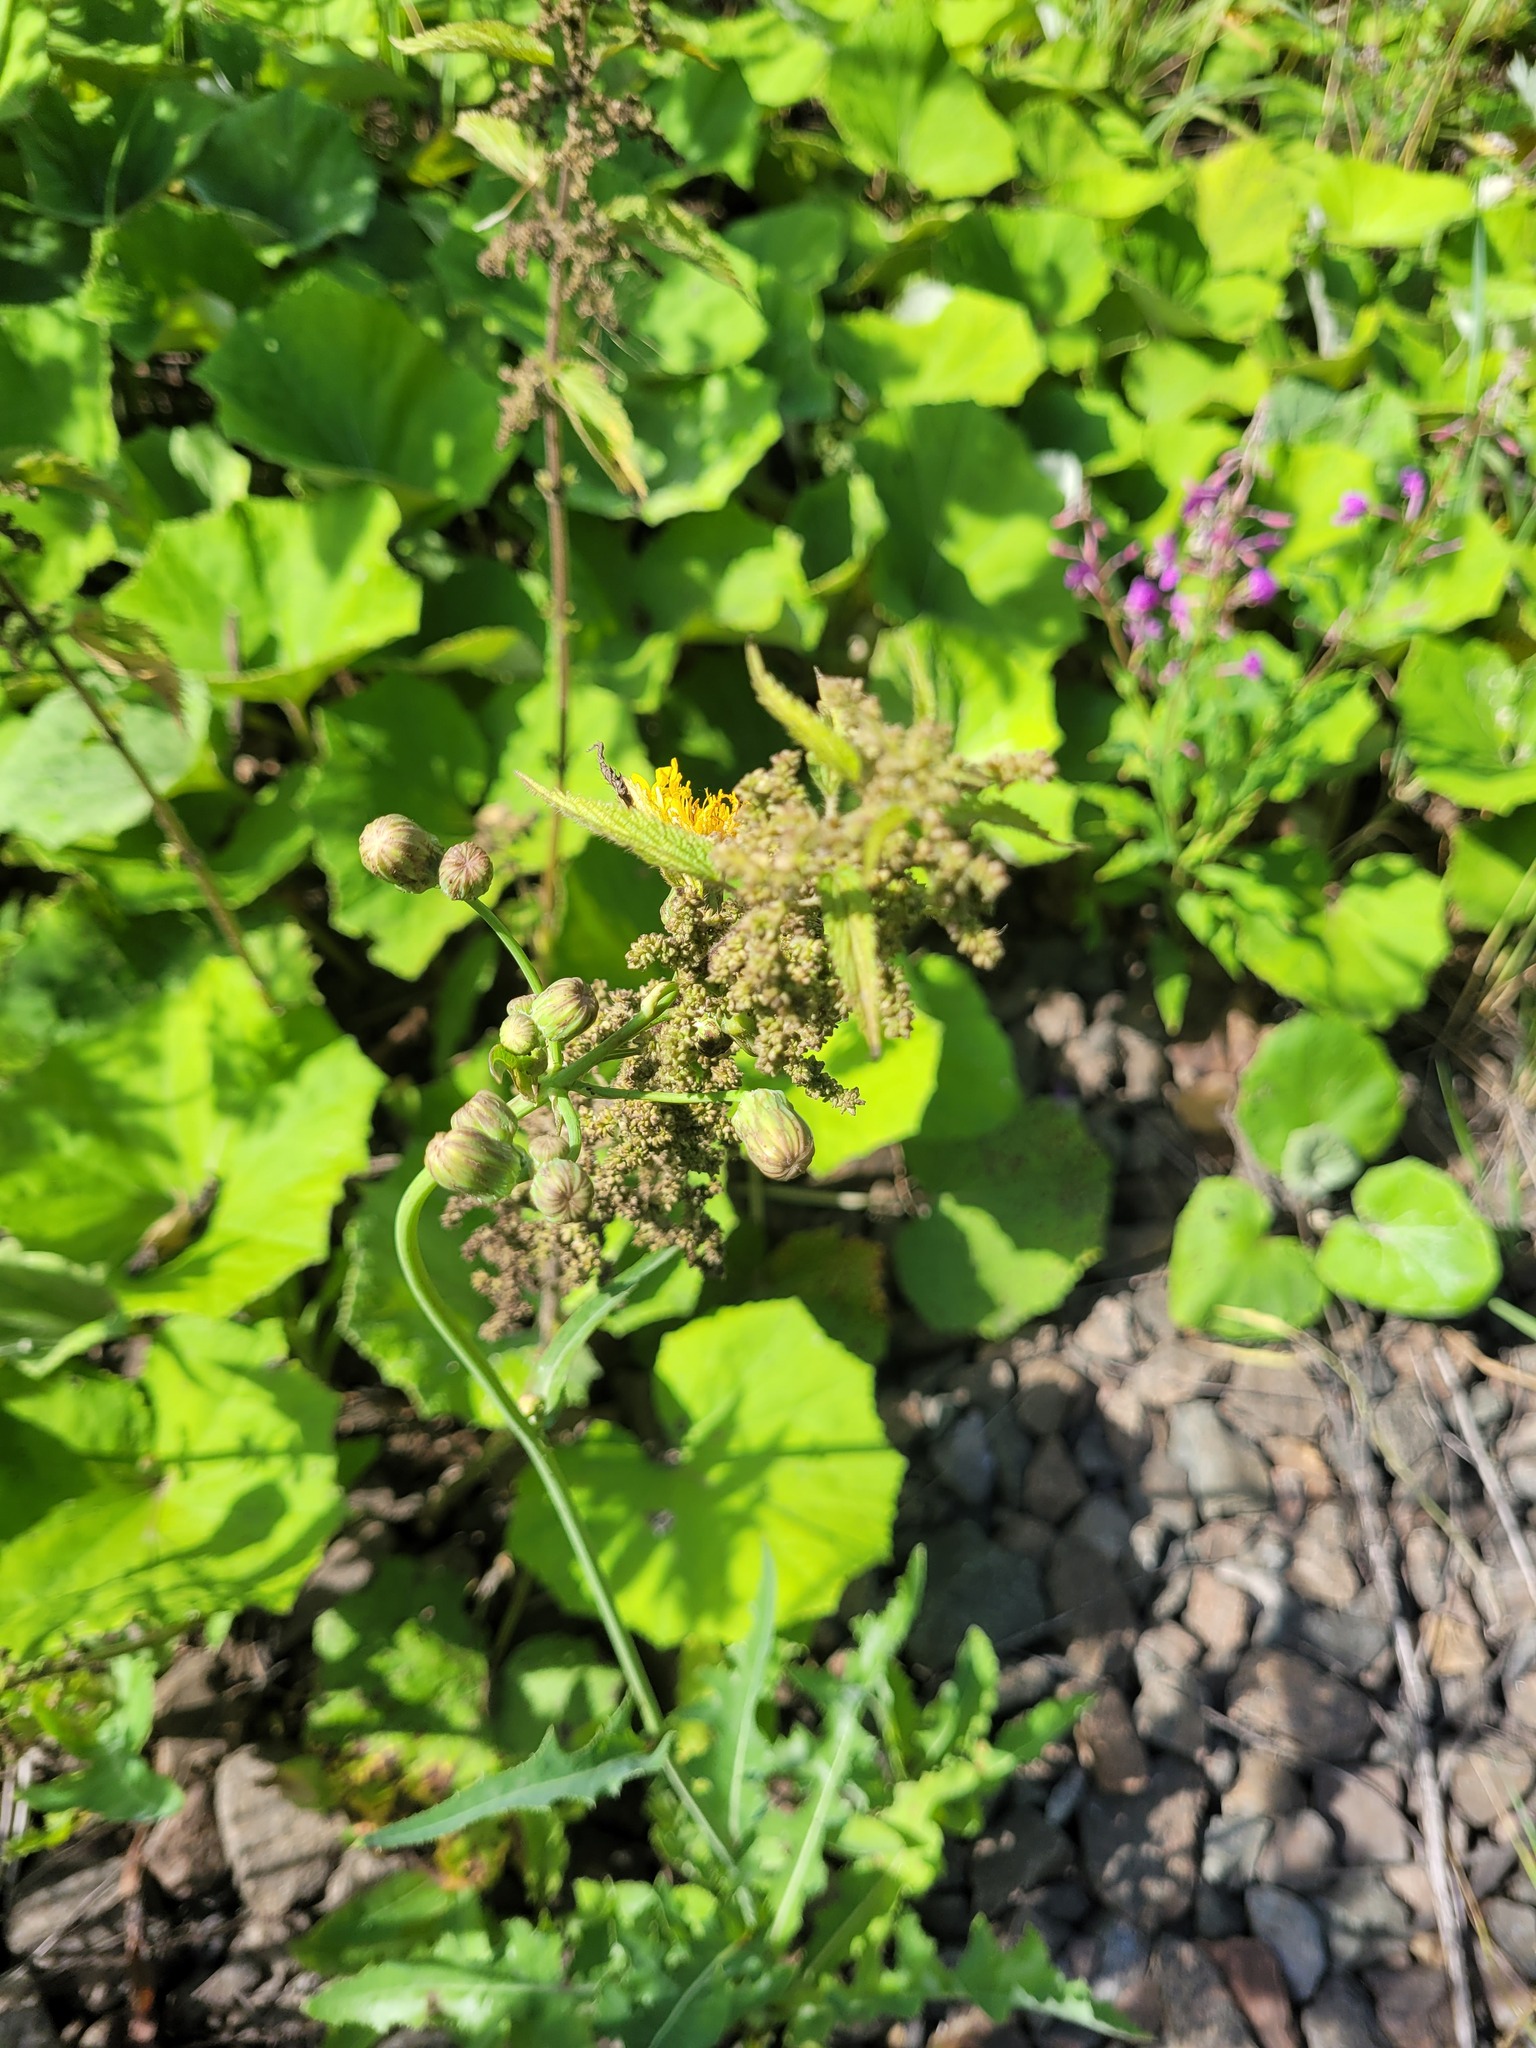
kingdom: Plantae
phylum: Tracheophyta
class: Magnoliopsida
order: Asterales
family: Asteraceae
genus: Sonchus
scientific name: Sonchus arvensis
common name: Perennial sow-thistle
